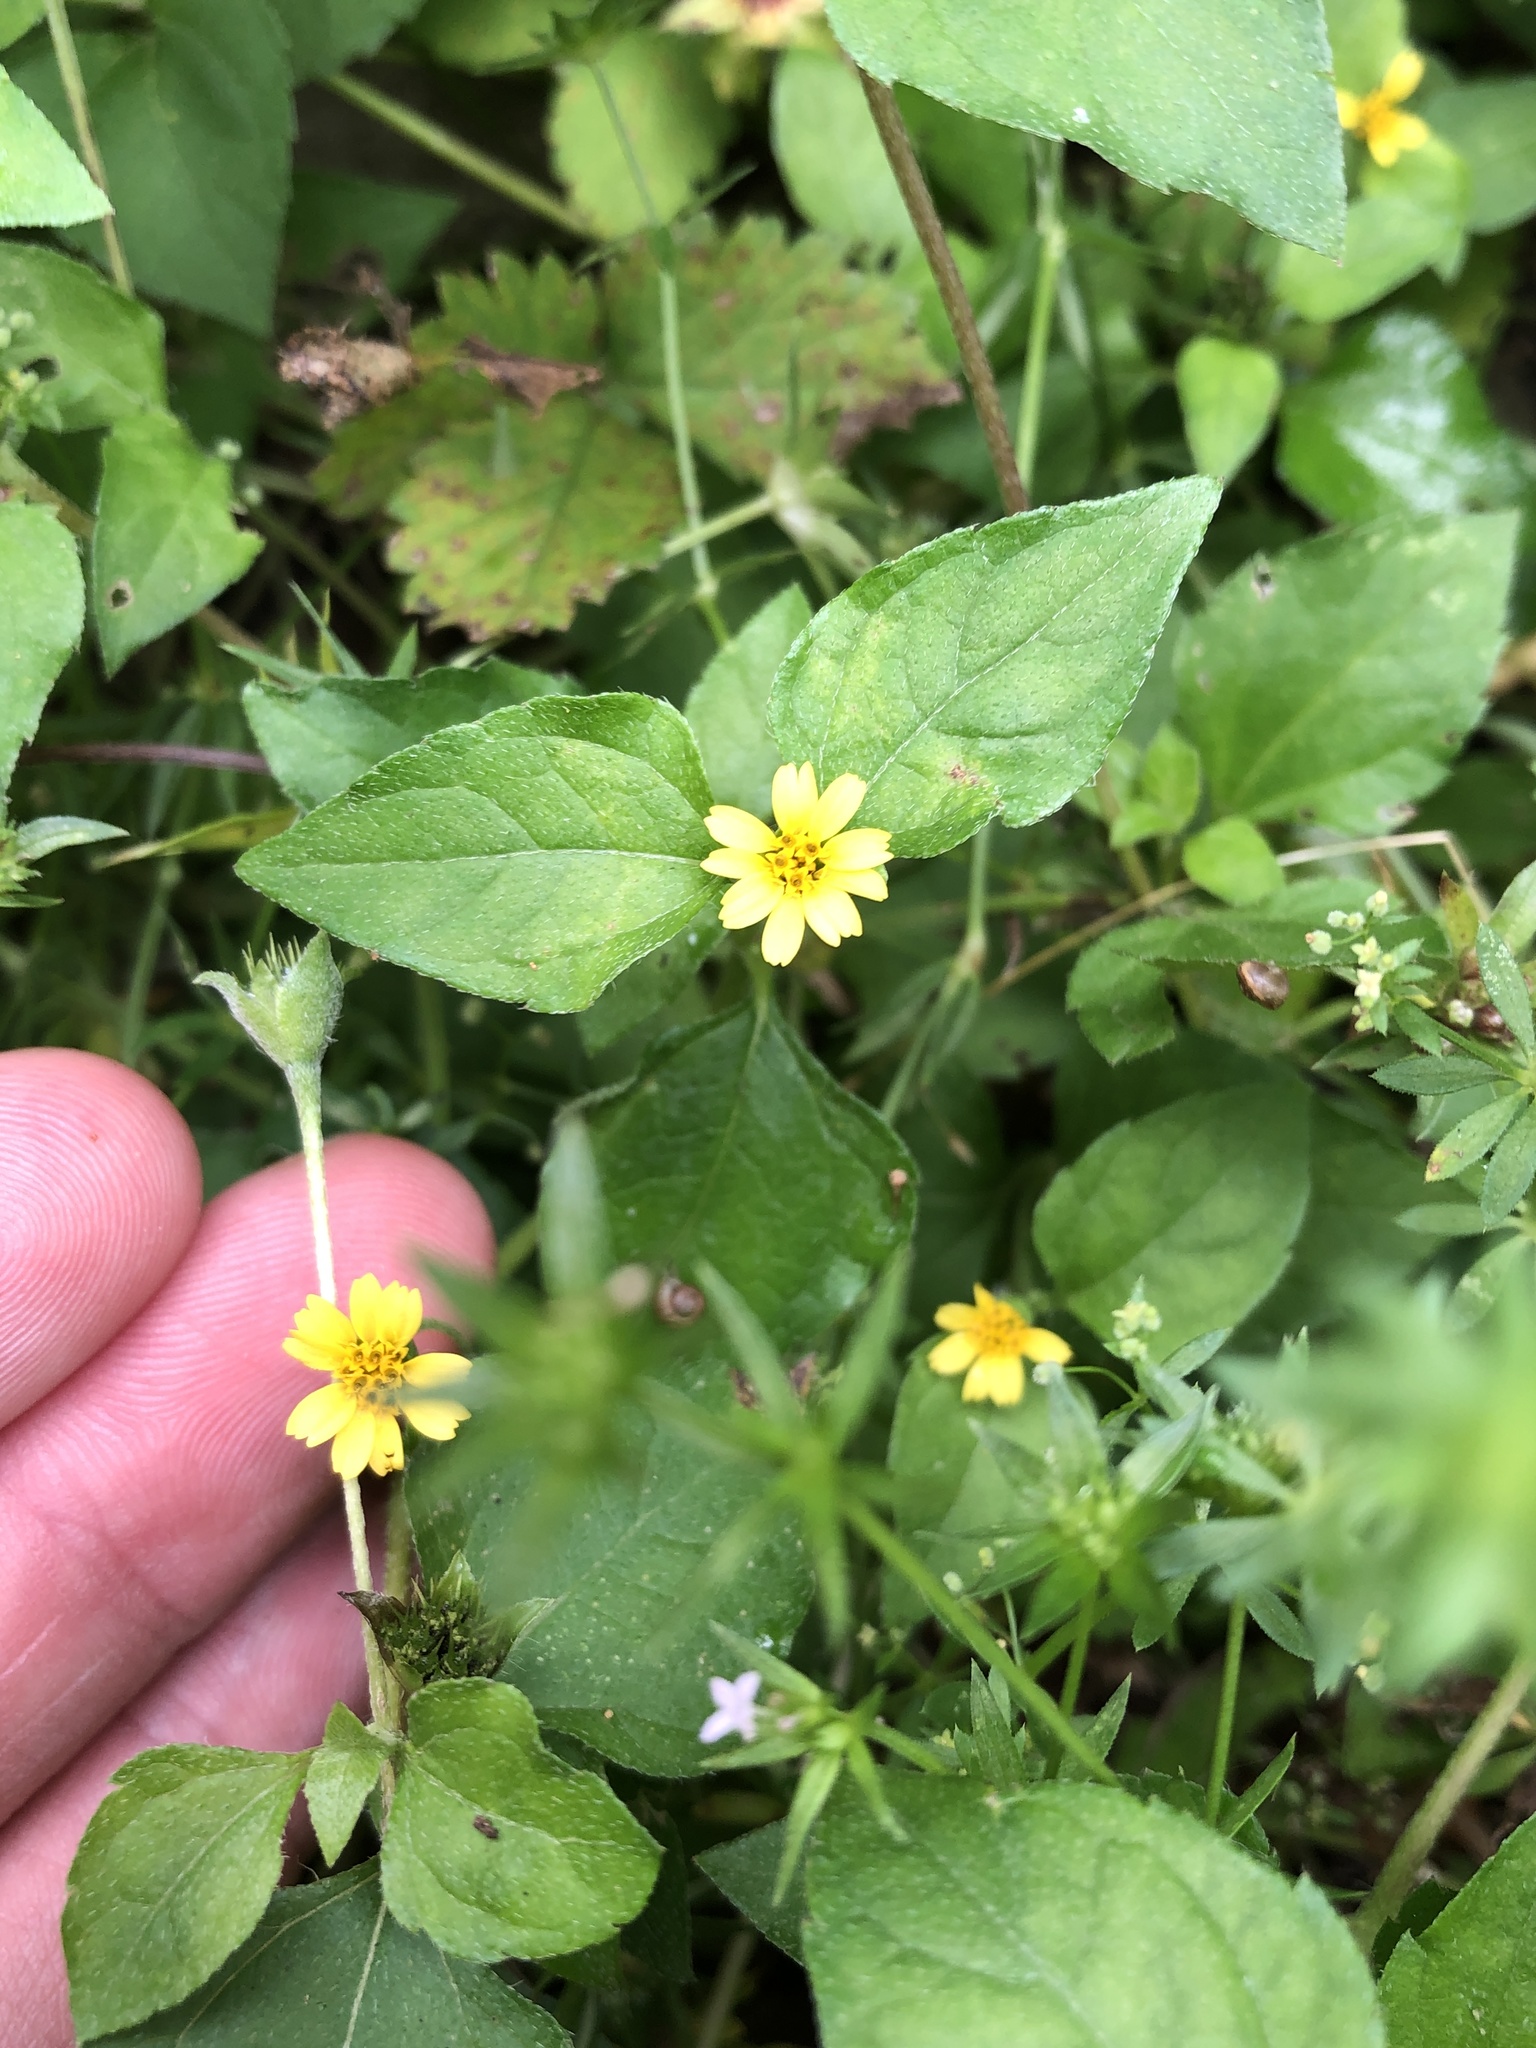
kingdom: Plantae
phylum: Tracheophyta
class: Magnoliopsida
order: Asterales
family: Asteraceae
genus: Calyptocarpus
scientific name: Calyptocarpus vialis
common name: Straggler daisy
